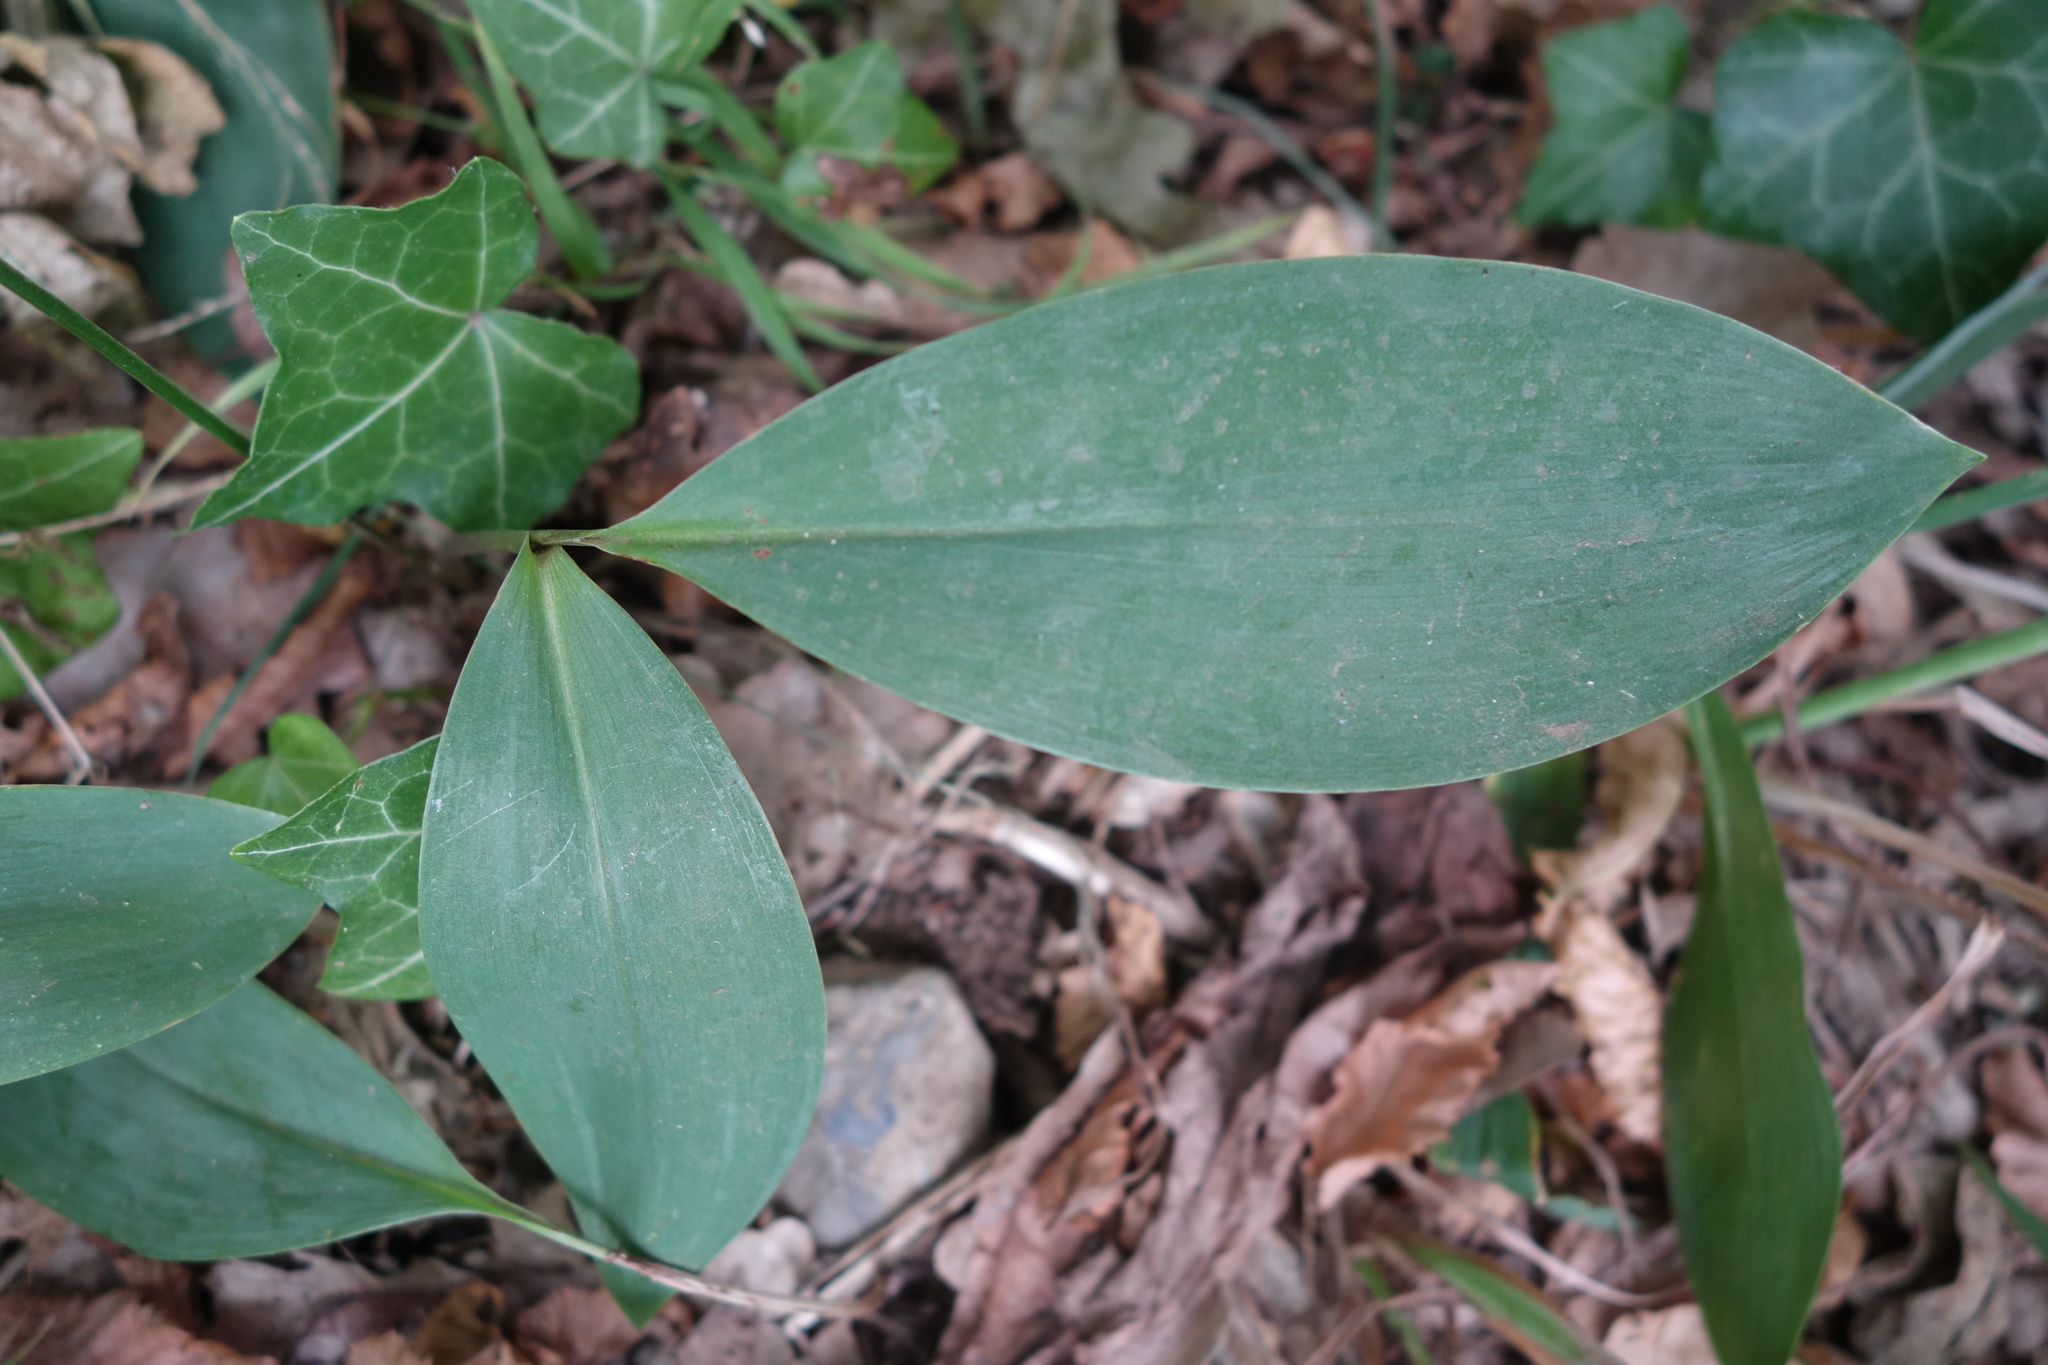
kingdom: Plantae
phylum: Tracheophyta
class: Liliopsida
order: Asparagales
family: Asparagaceae
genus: Convallaria
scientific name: Convallaria majalis
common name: Lily-of-the-valley
